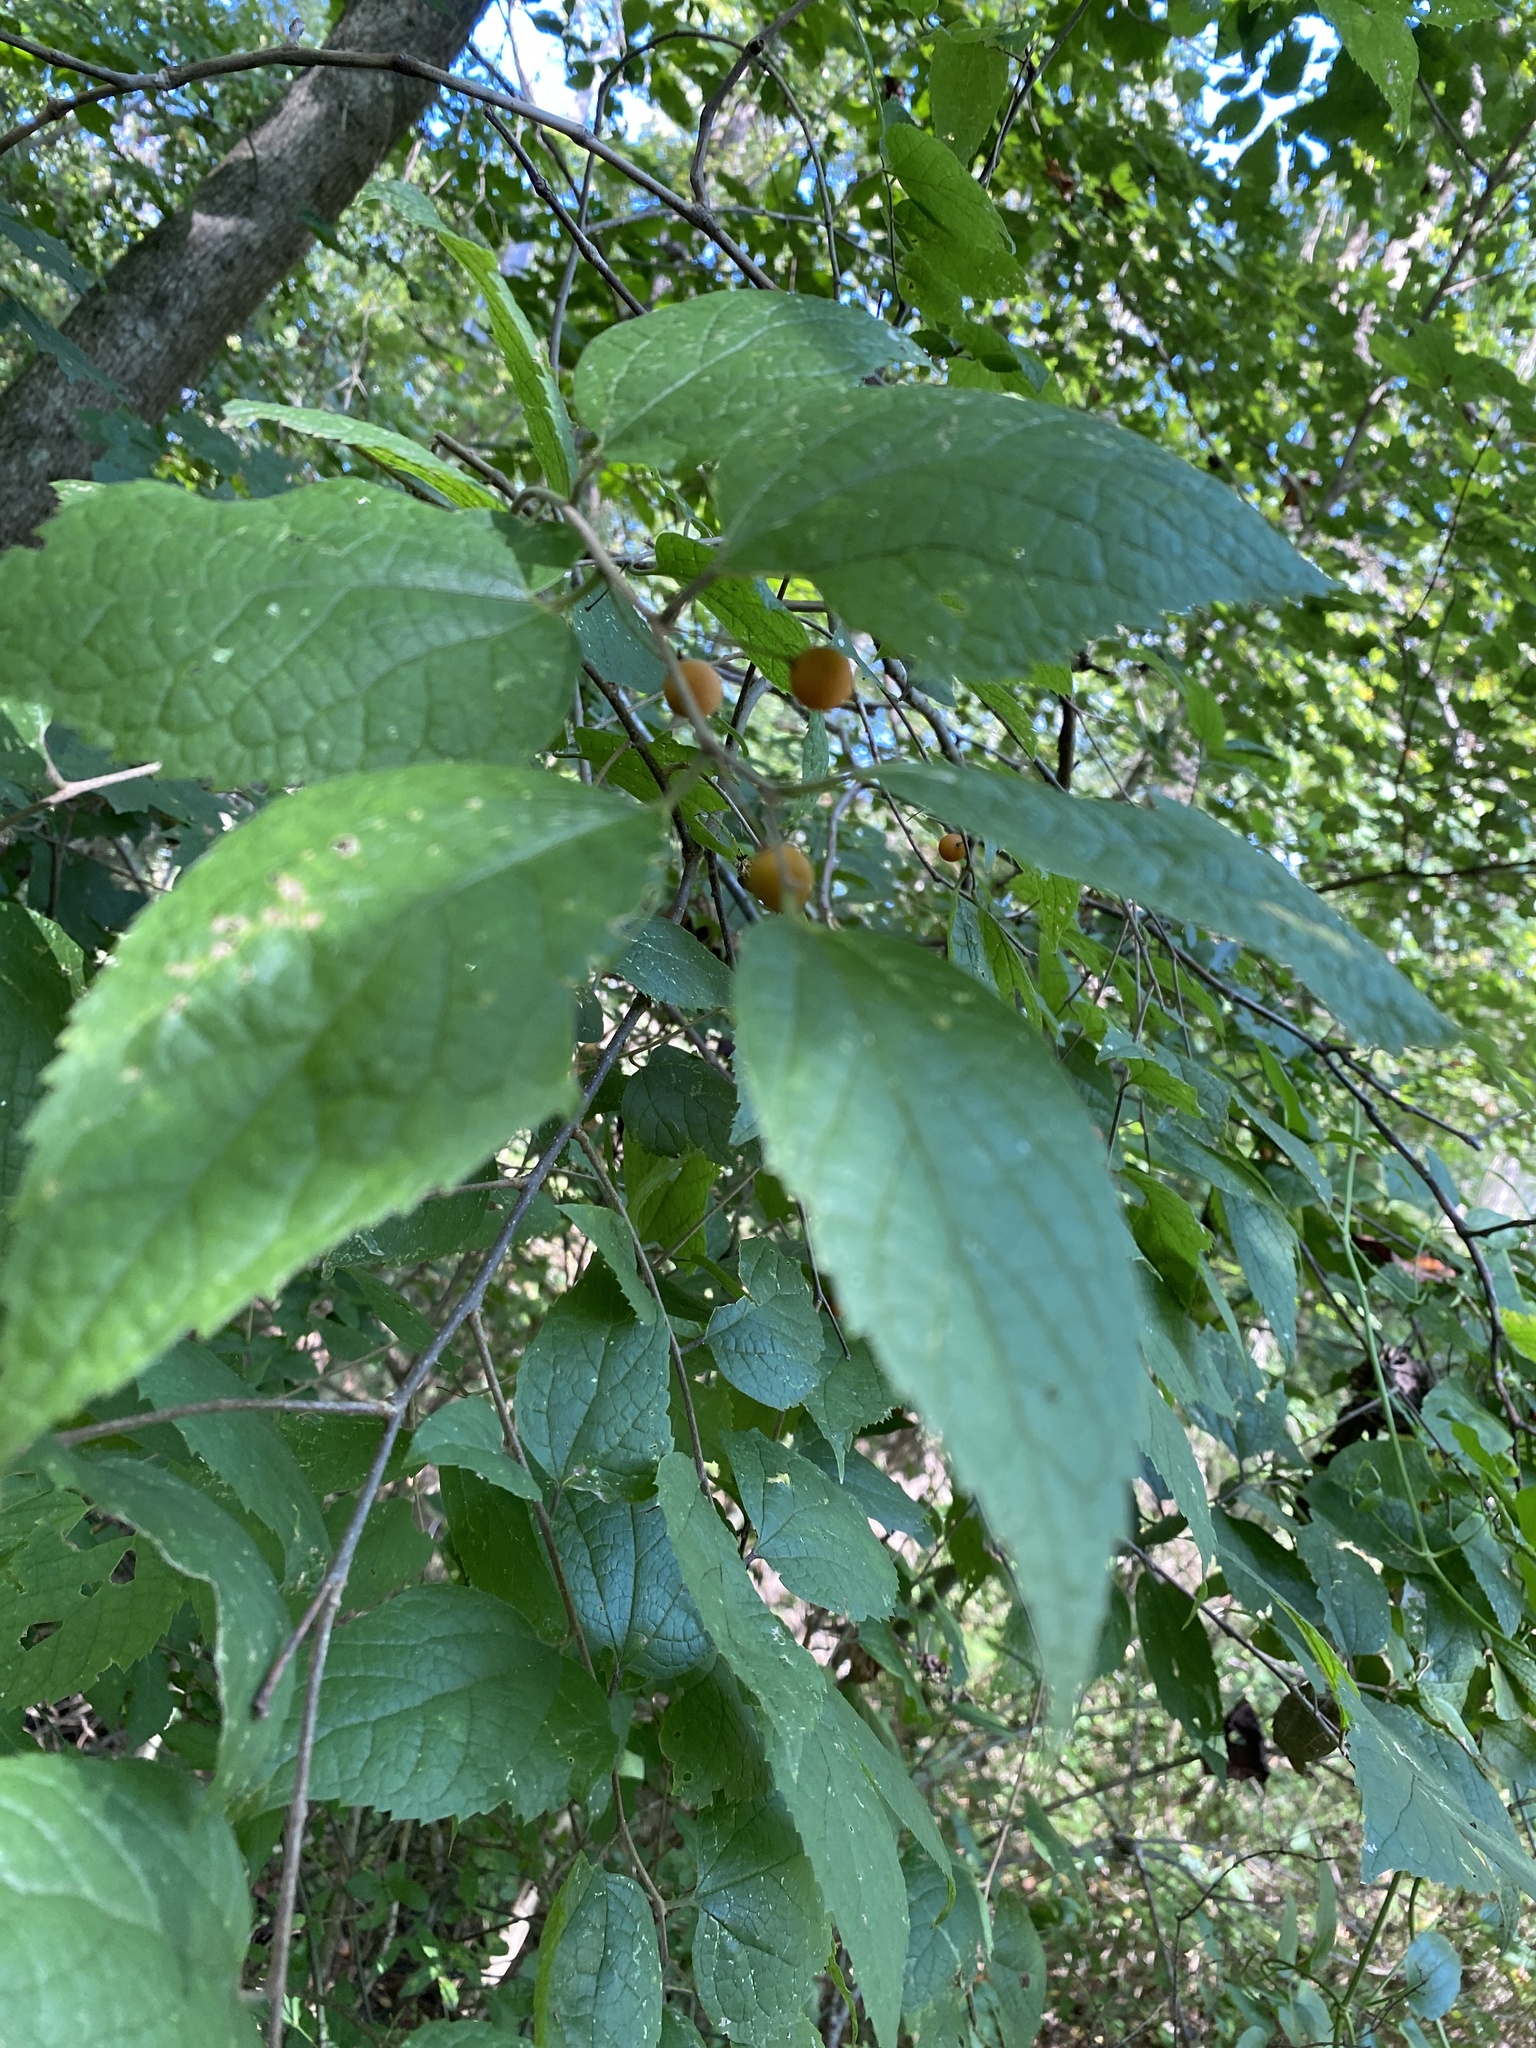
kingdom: Plantae
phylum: Tracheophyta
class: Magnoliopsida
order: Rosales
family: Cannabaceae
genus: Celtis
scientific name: Celtis tenuifolia
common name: Georgia hackberry
